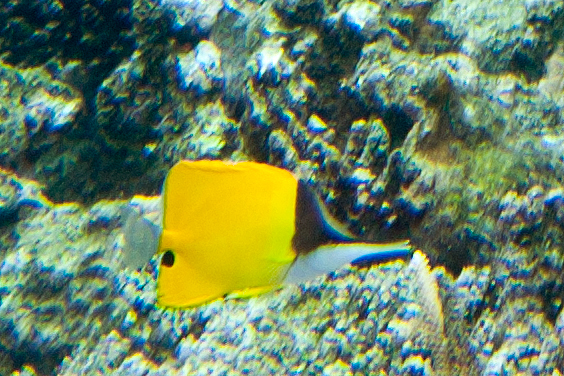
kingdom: Animalia
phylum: Chordata
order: Perciformes
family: Chaetodontidae
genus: Forcipiger
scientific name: Forcipiger flavissimus
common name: Forcepsfish
